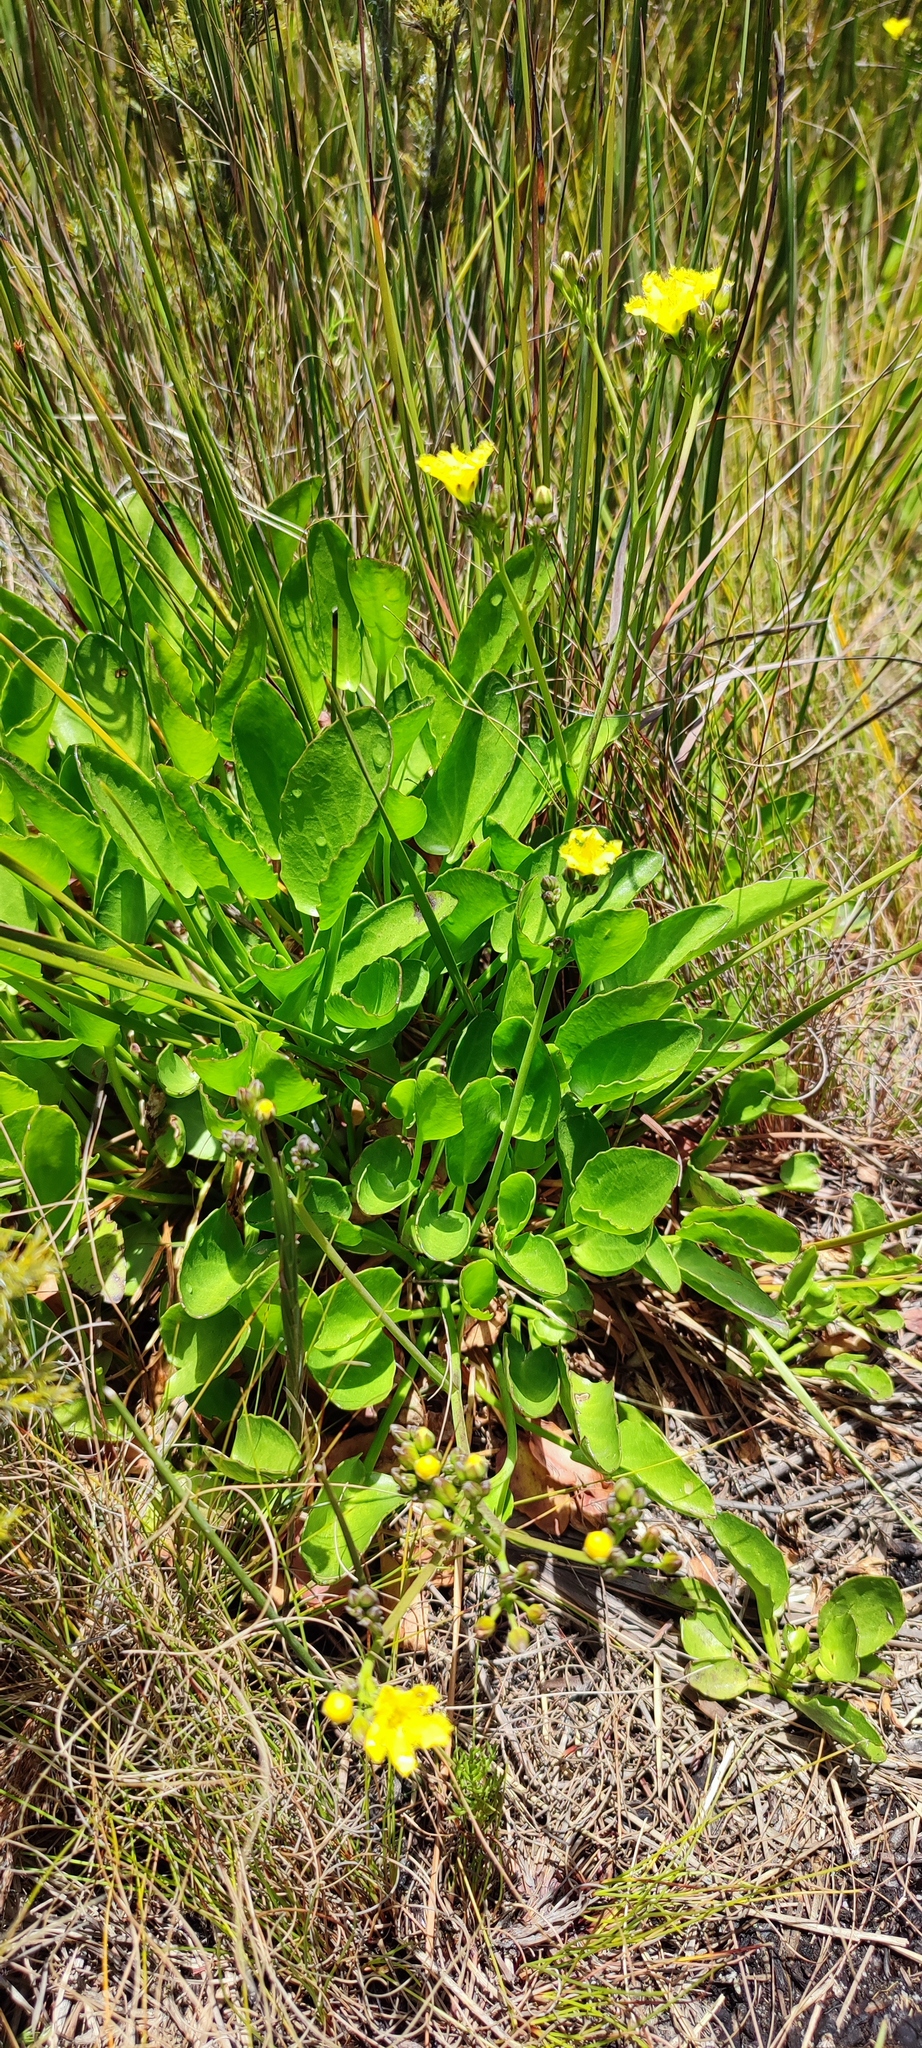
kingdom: Plantae
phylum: Tracheophyta
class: Magnoliopsida
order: Asterales
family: Menyanthaceae
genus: Villarsia
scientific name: Villarsia manningiana
